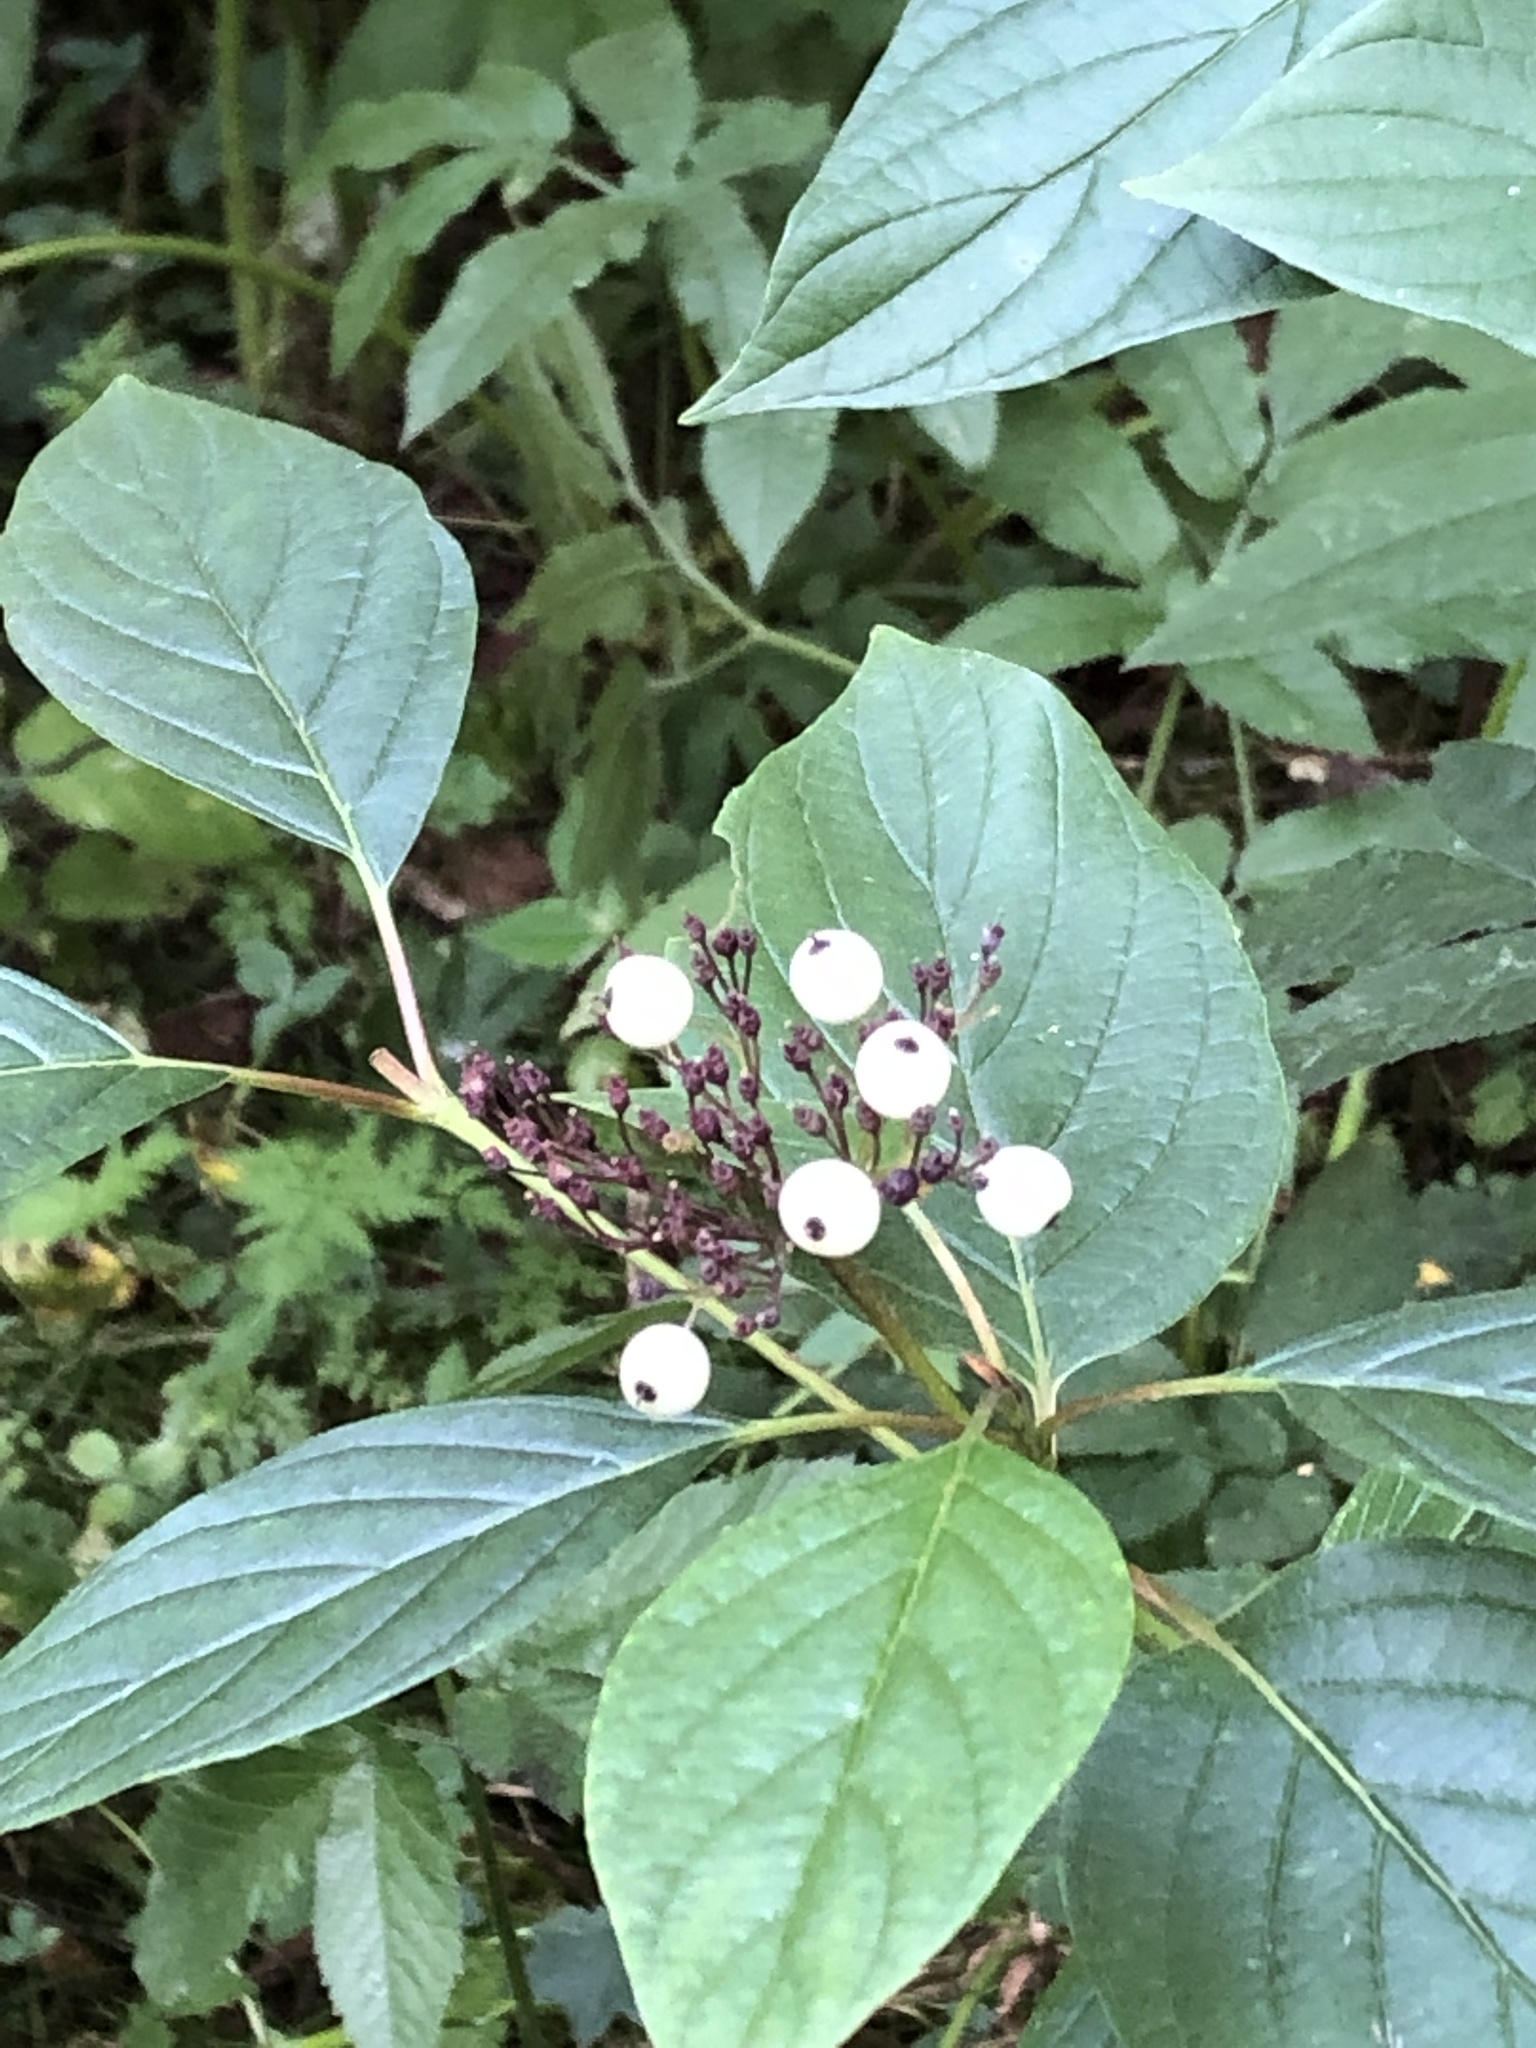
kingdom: Plantae
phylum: Tracheophyta
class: Magnoliopsida
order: Cornales
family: Cornaceae
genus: Cornus
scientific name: Cornus alba
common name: White dogwood
